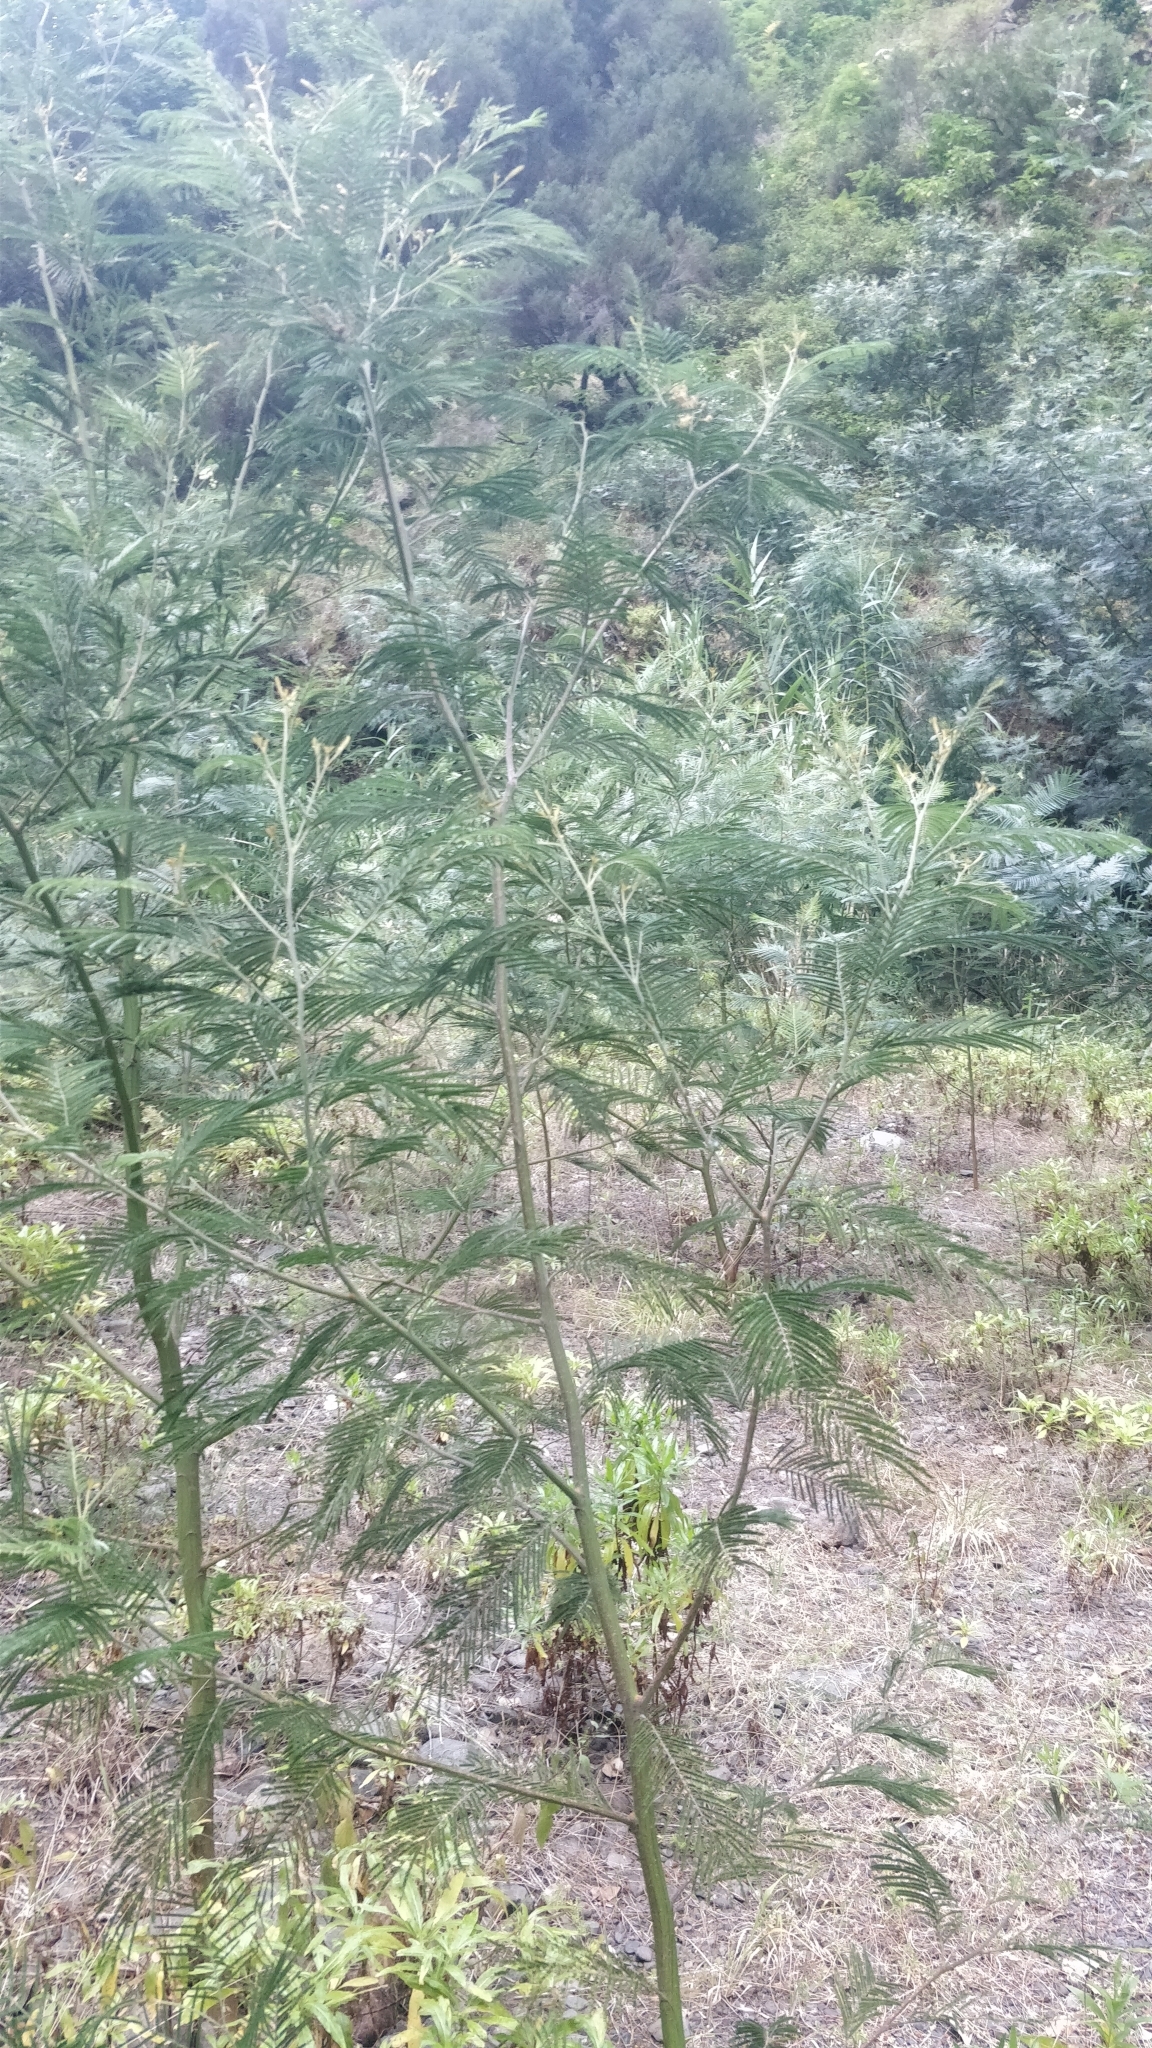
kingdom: Plantae
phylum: Tracheophyta
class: Magnoliopsida
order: Fabales
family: Fabaceae
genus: Acacia
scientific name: Acacia mearnsii
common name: Black wattle
